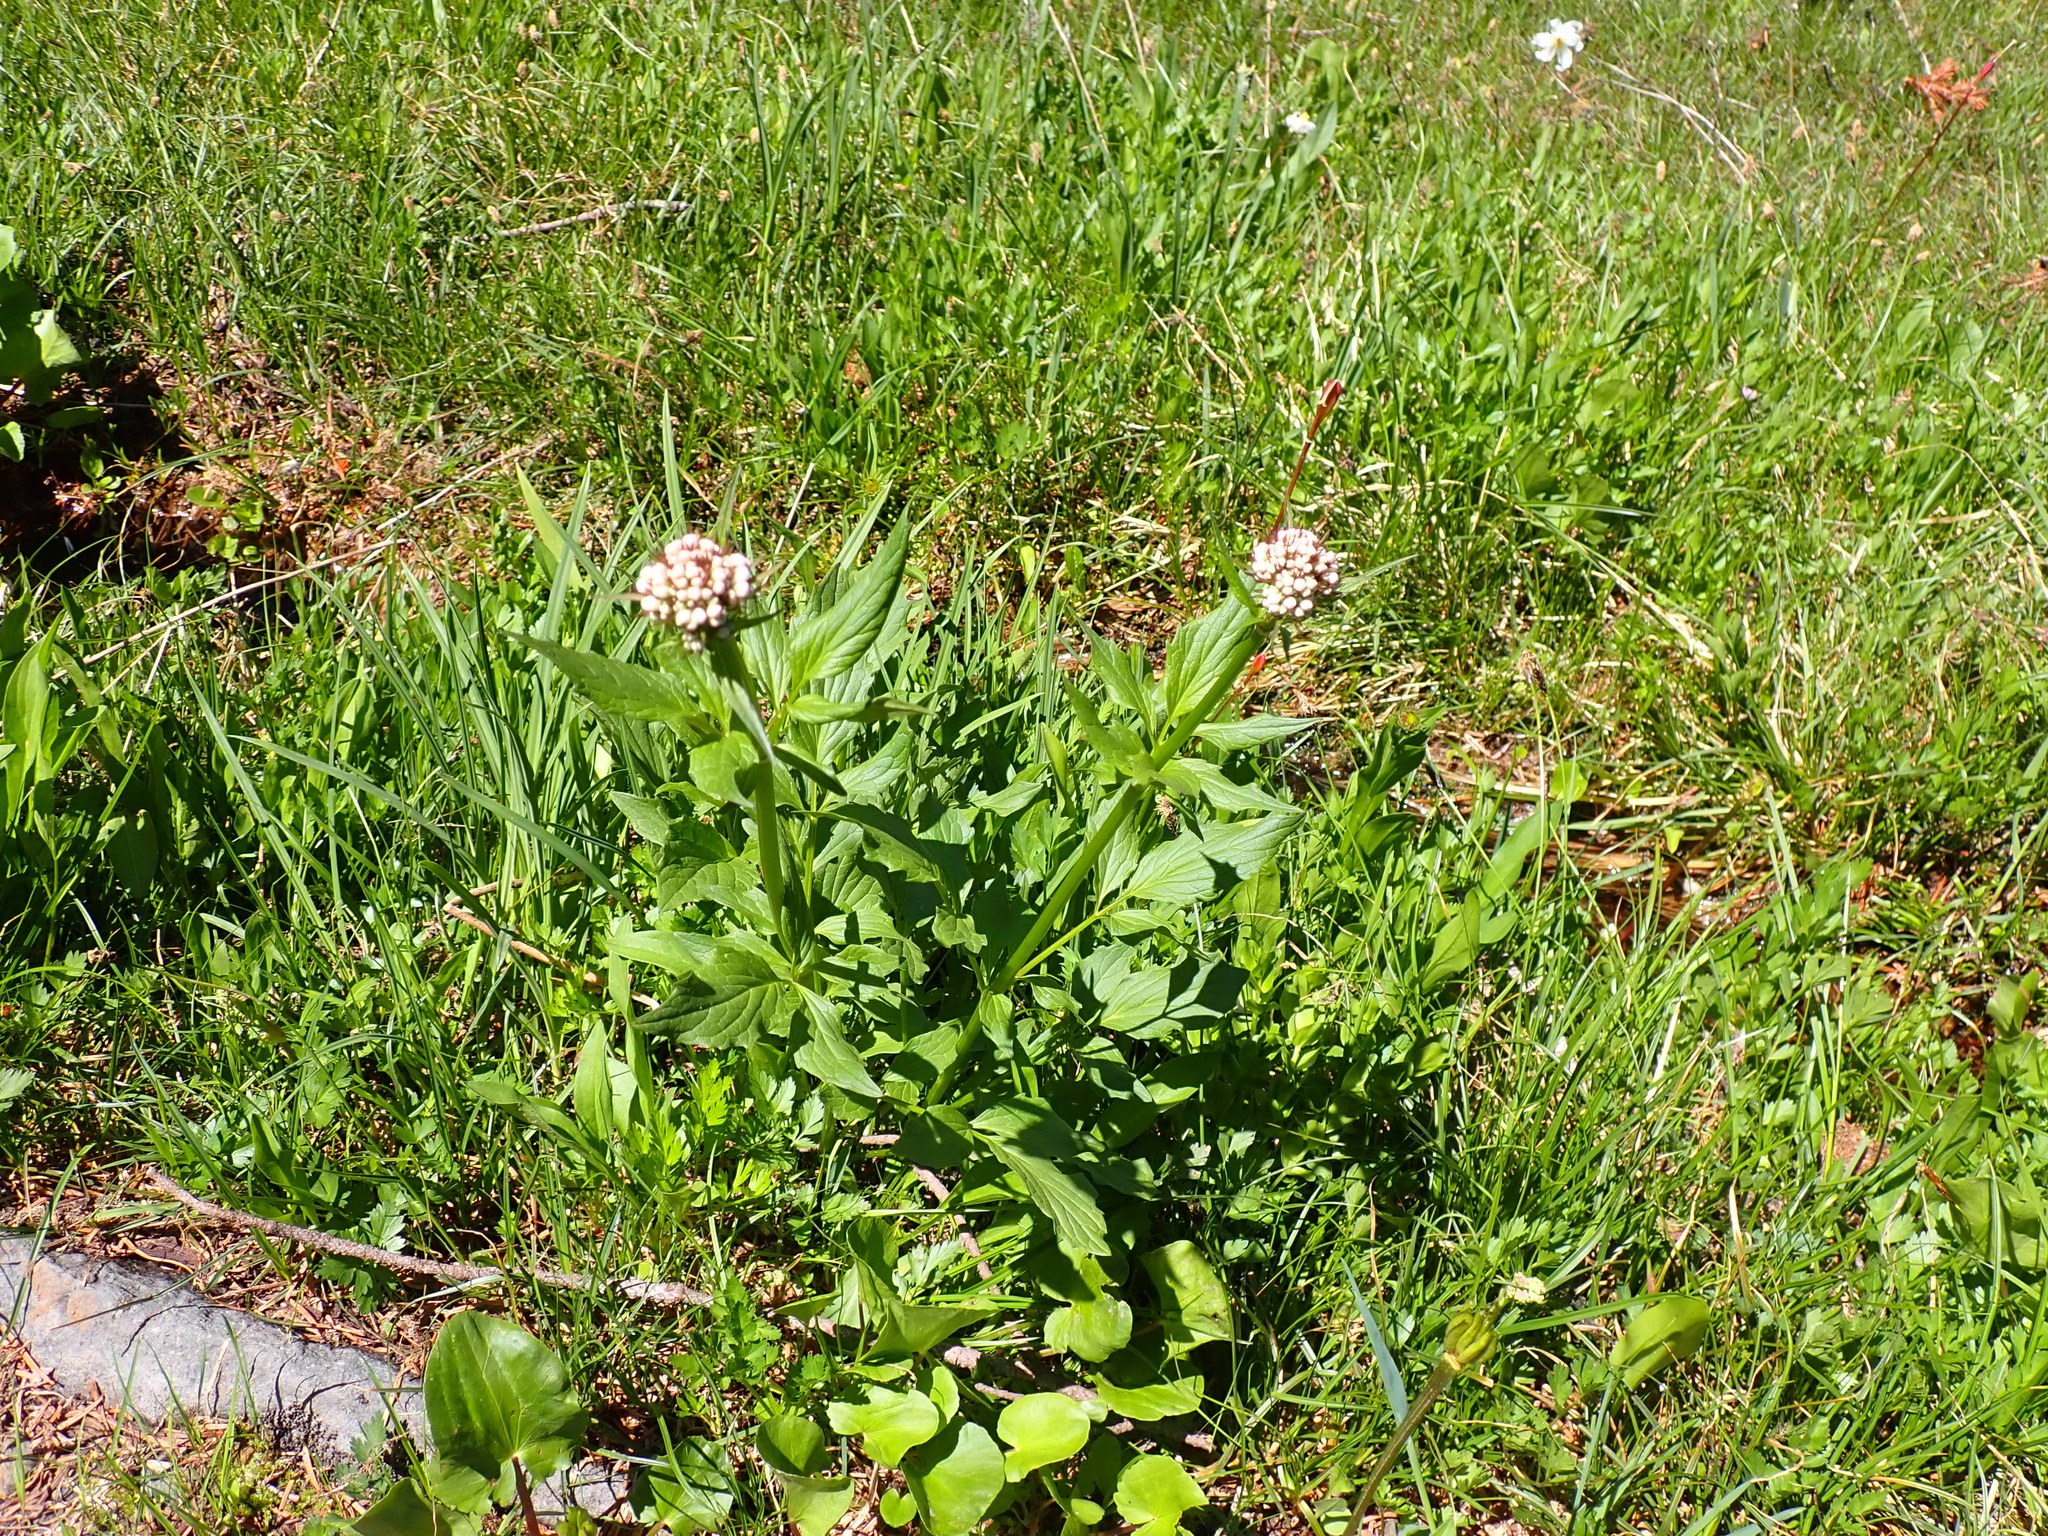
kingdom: Plantae
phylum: Tracheophyta
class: Magnoliopsida
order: Dipsacales
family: Caprifoliaceae
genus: Valeriana
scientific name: Valeriana sitchensis
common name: Pacific valerian
